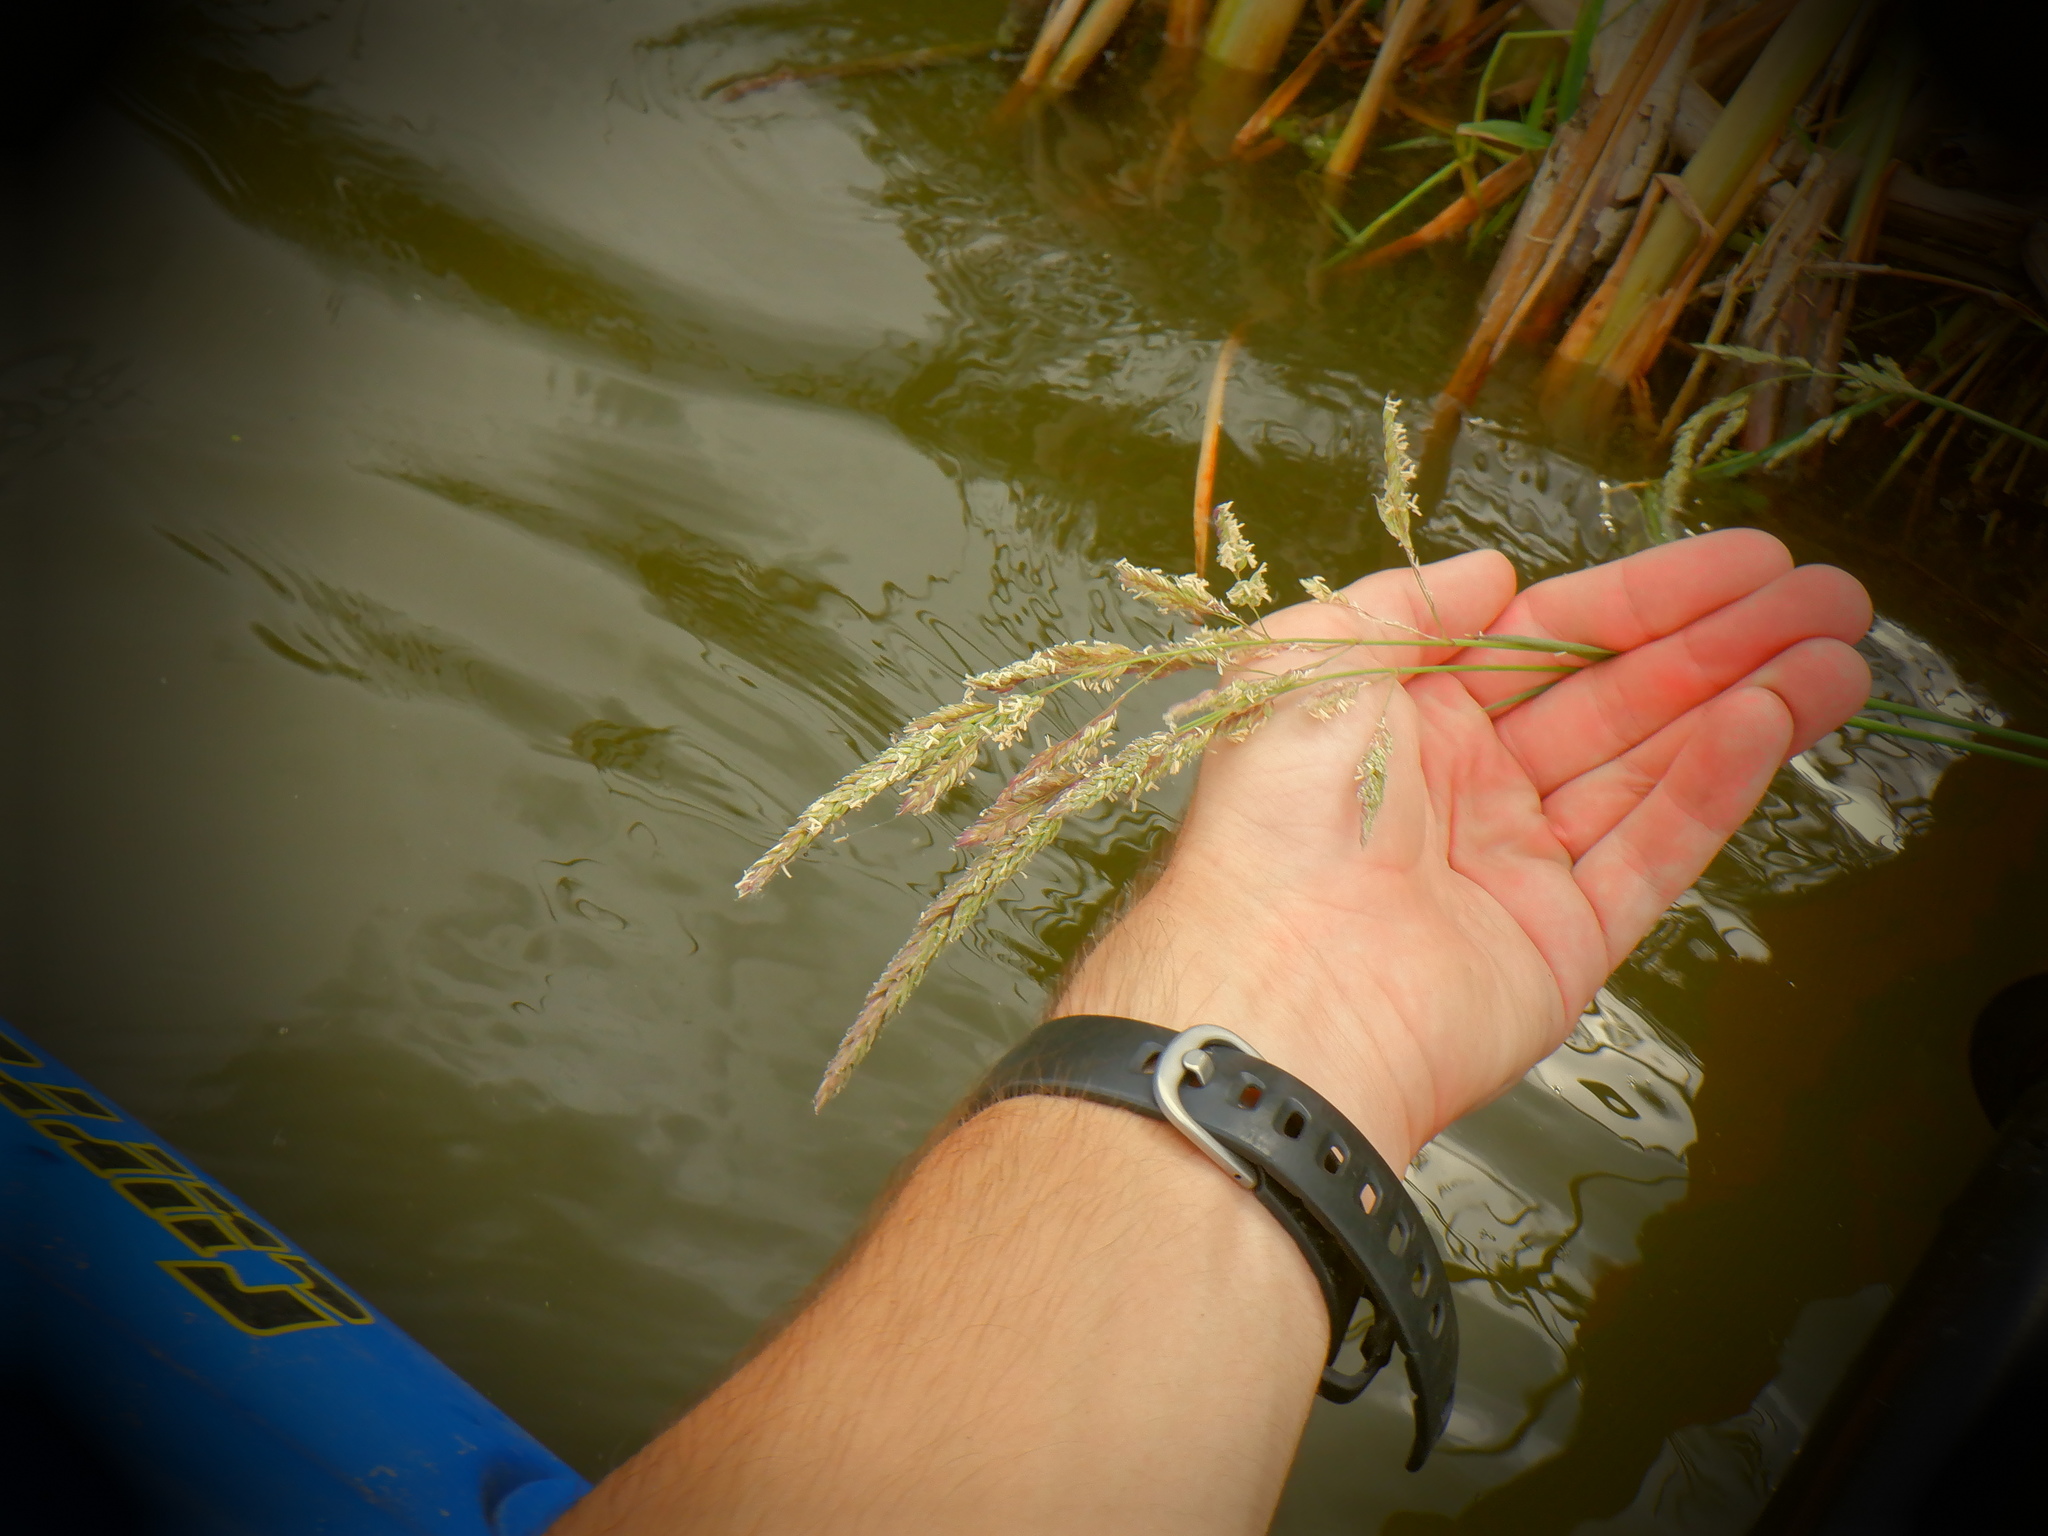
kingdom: Plantae
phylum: Tracheophyta
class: Liliopsida
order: Poales
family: Poaceae
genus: Phalaris
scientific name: Phalaris arundinacea
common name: Reed canary-grass
